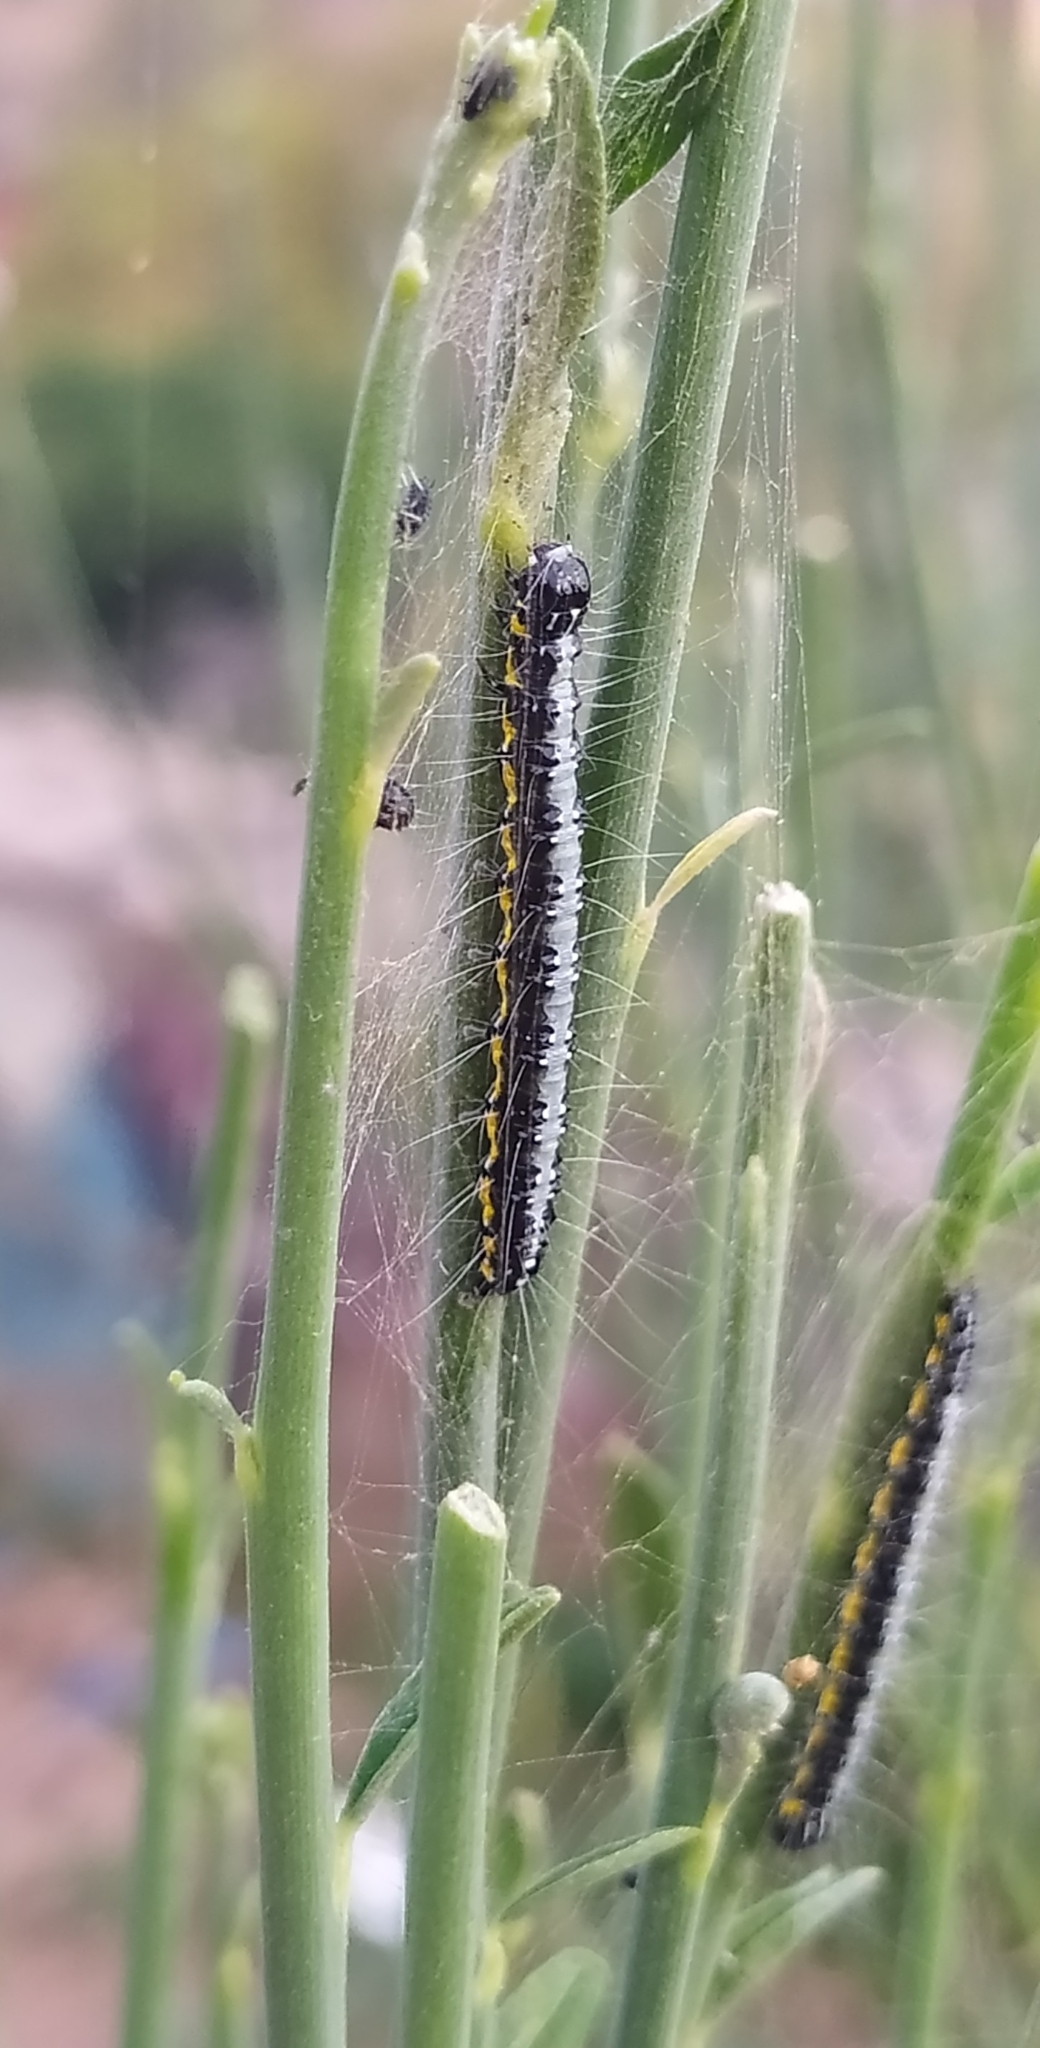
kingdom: Animalia
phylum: Arthropoda
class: Insecta
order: Lepidoptera
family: Crambidae
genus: Uresiphita
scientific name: Uresiphita gilvata
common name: Yellow-underwing pearl
